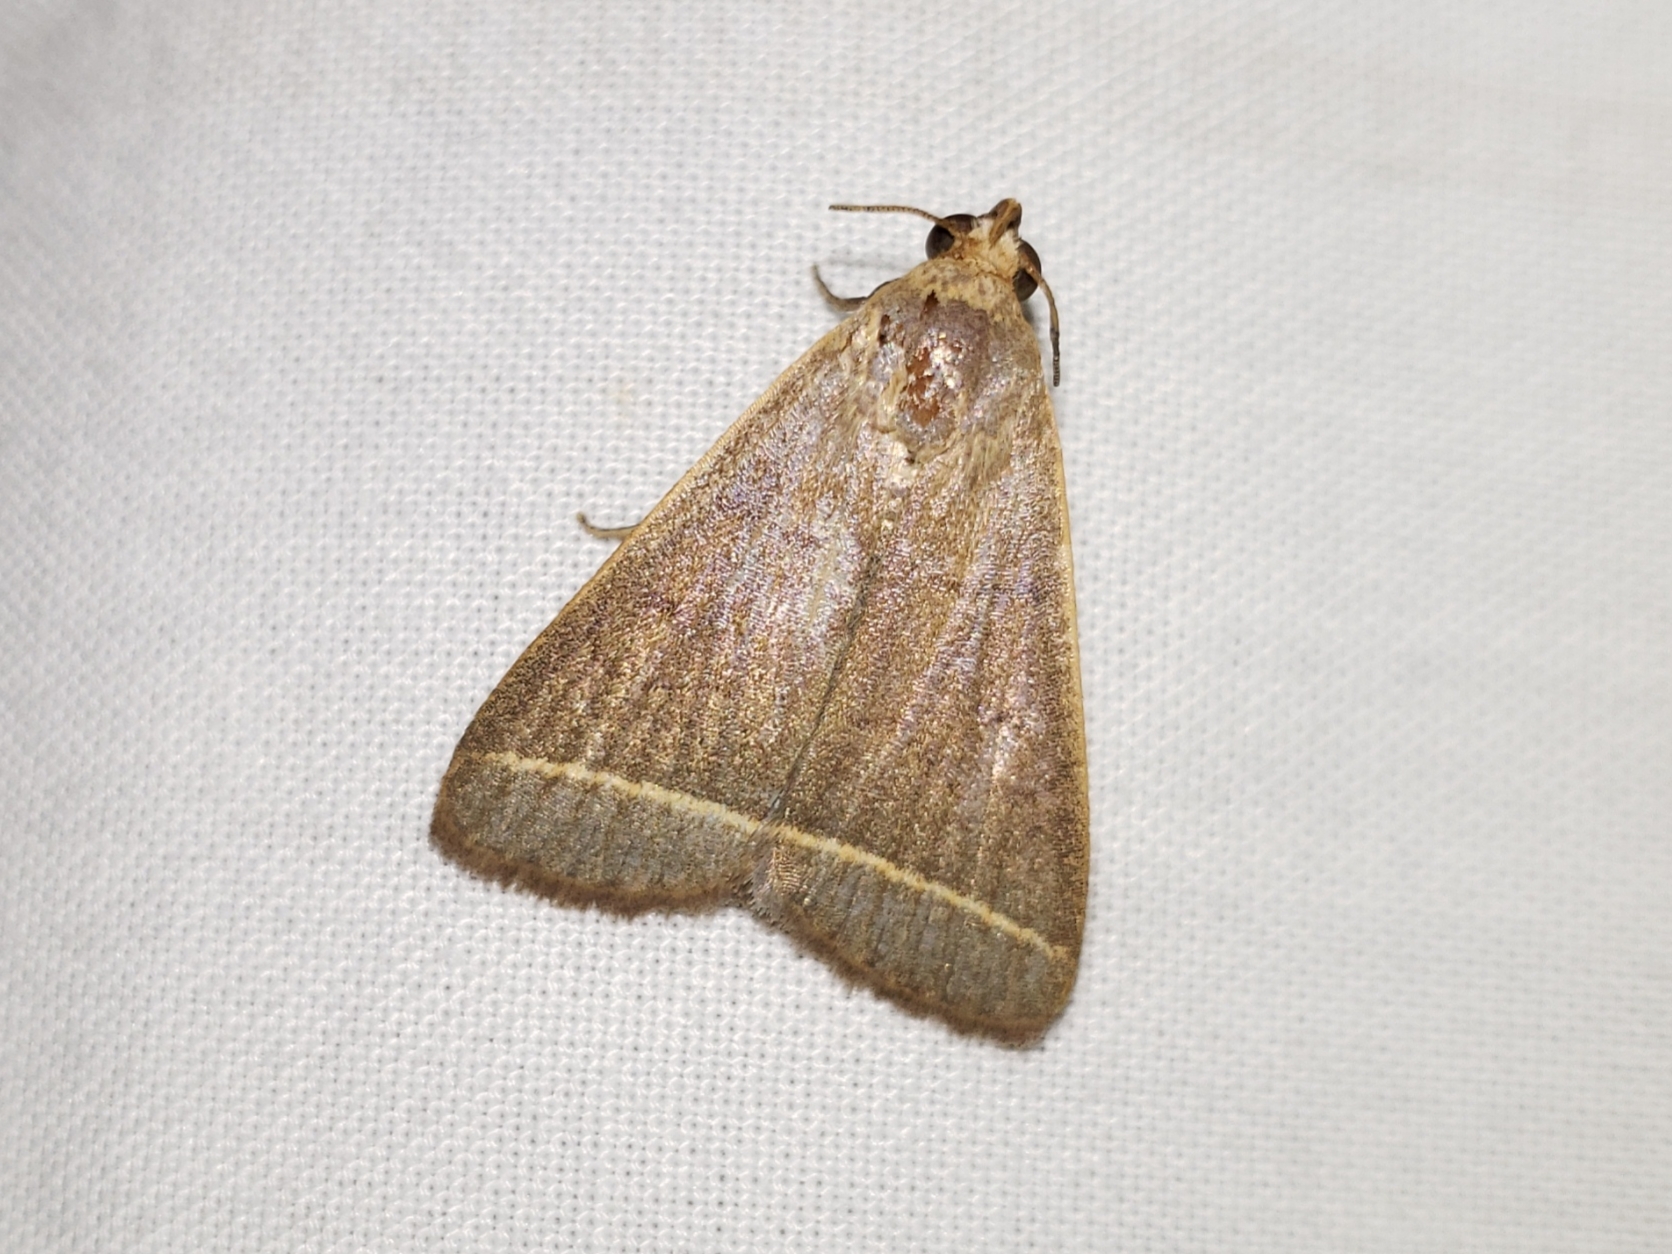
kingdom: Animalia
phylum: Arthropoda
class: Insecta
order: Lepidoptera
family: Erebidae
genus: Simplicia
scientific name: Simplicia cornicalis
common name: Tiki hut litter moth
